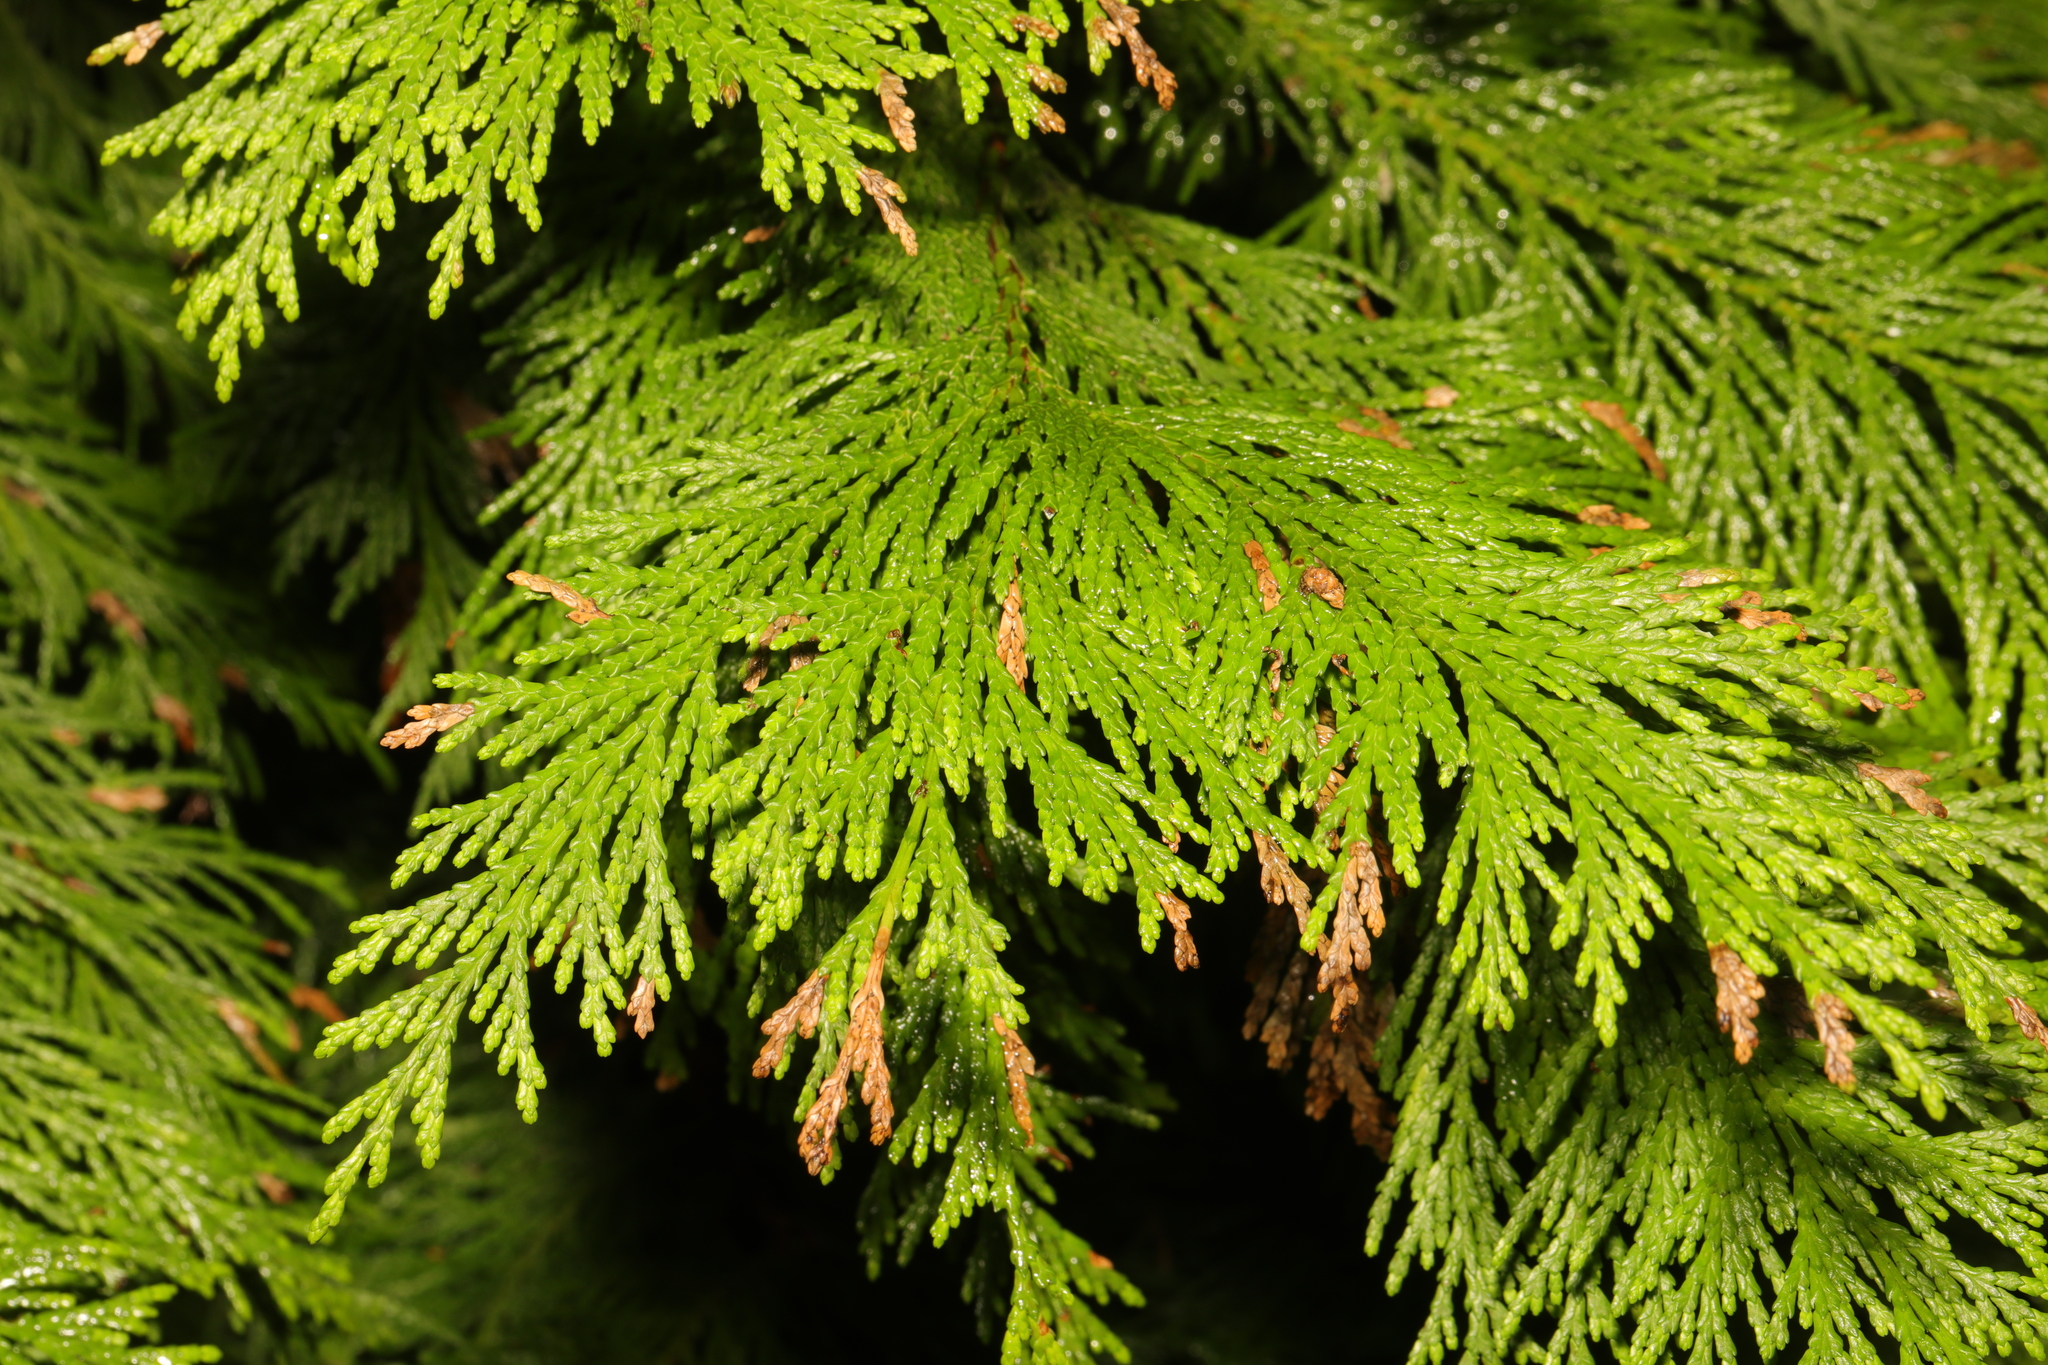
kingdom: Plantae
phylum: Tracheophyta
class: Pinopsida
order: Pinales
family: Cupressaceae
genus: Thuja
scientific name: Thuja plicata
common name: Western red-cedar
